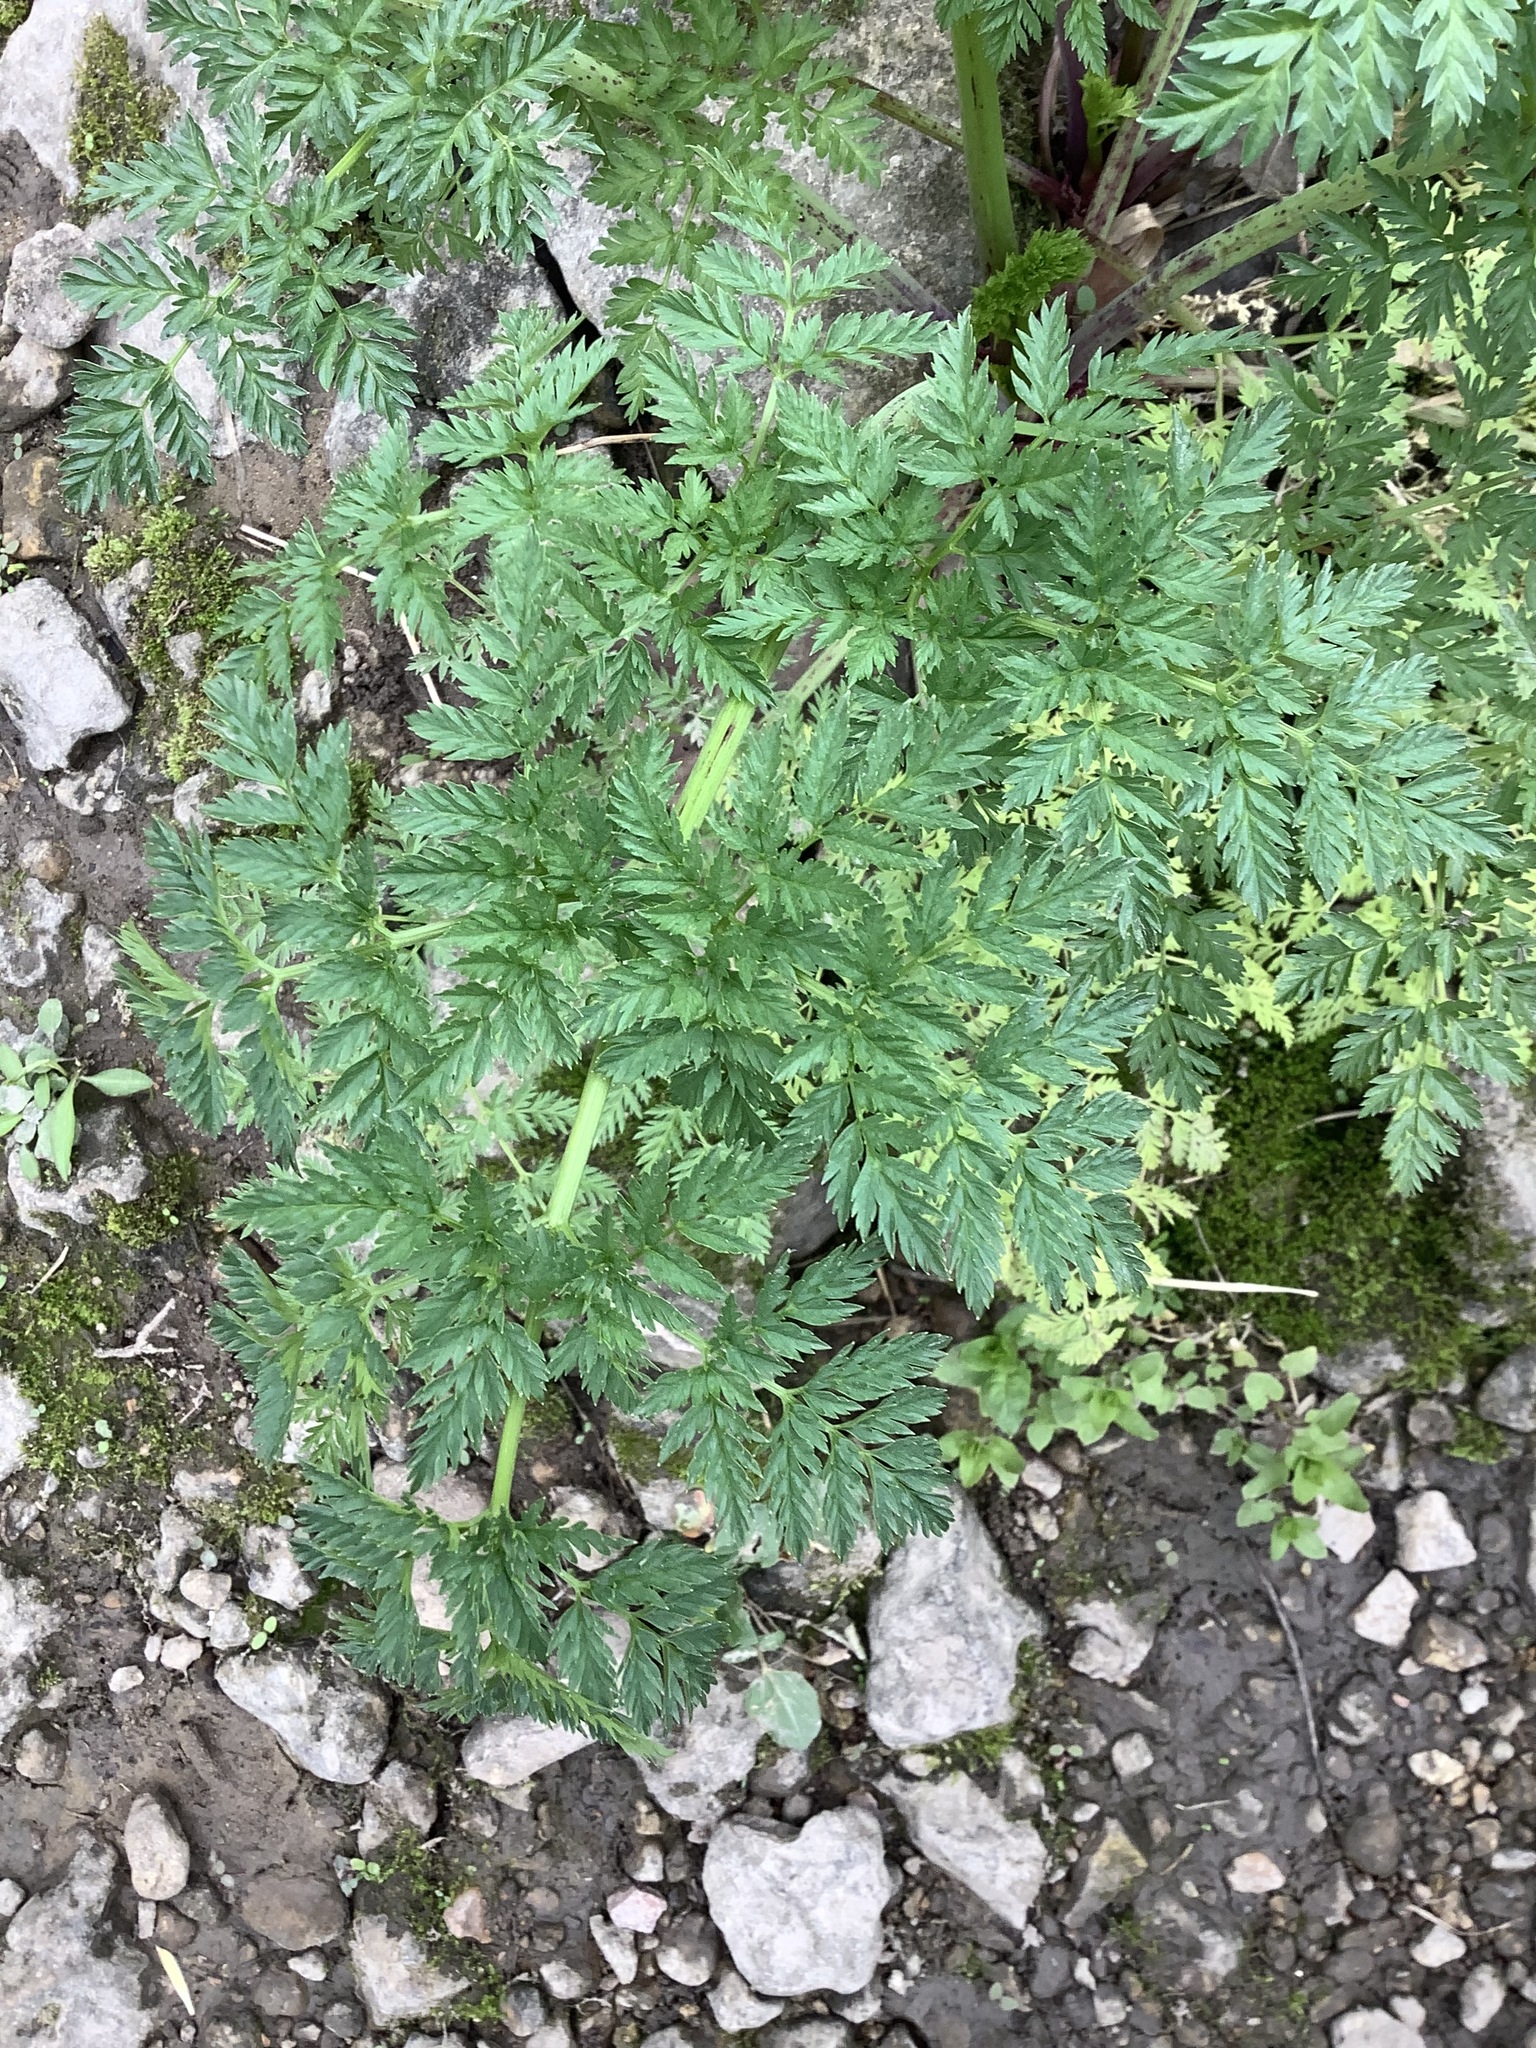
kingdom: Plantae
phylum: Tracheophyta
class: Magnoliopsida
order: Apiales
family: Apiaceae
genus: Conium
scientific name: Conium maculatum
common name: Hemlock
